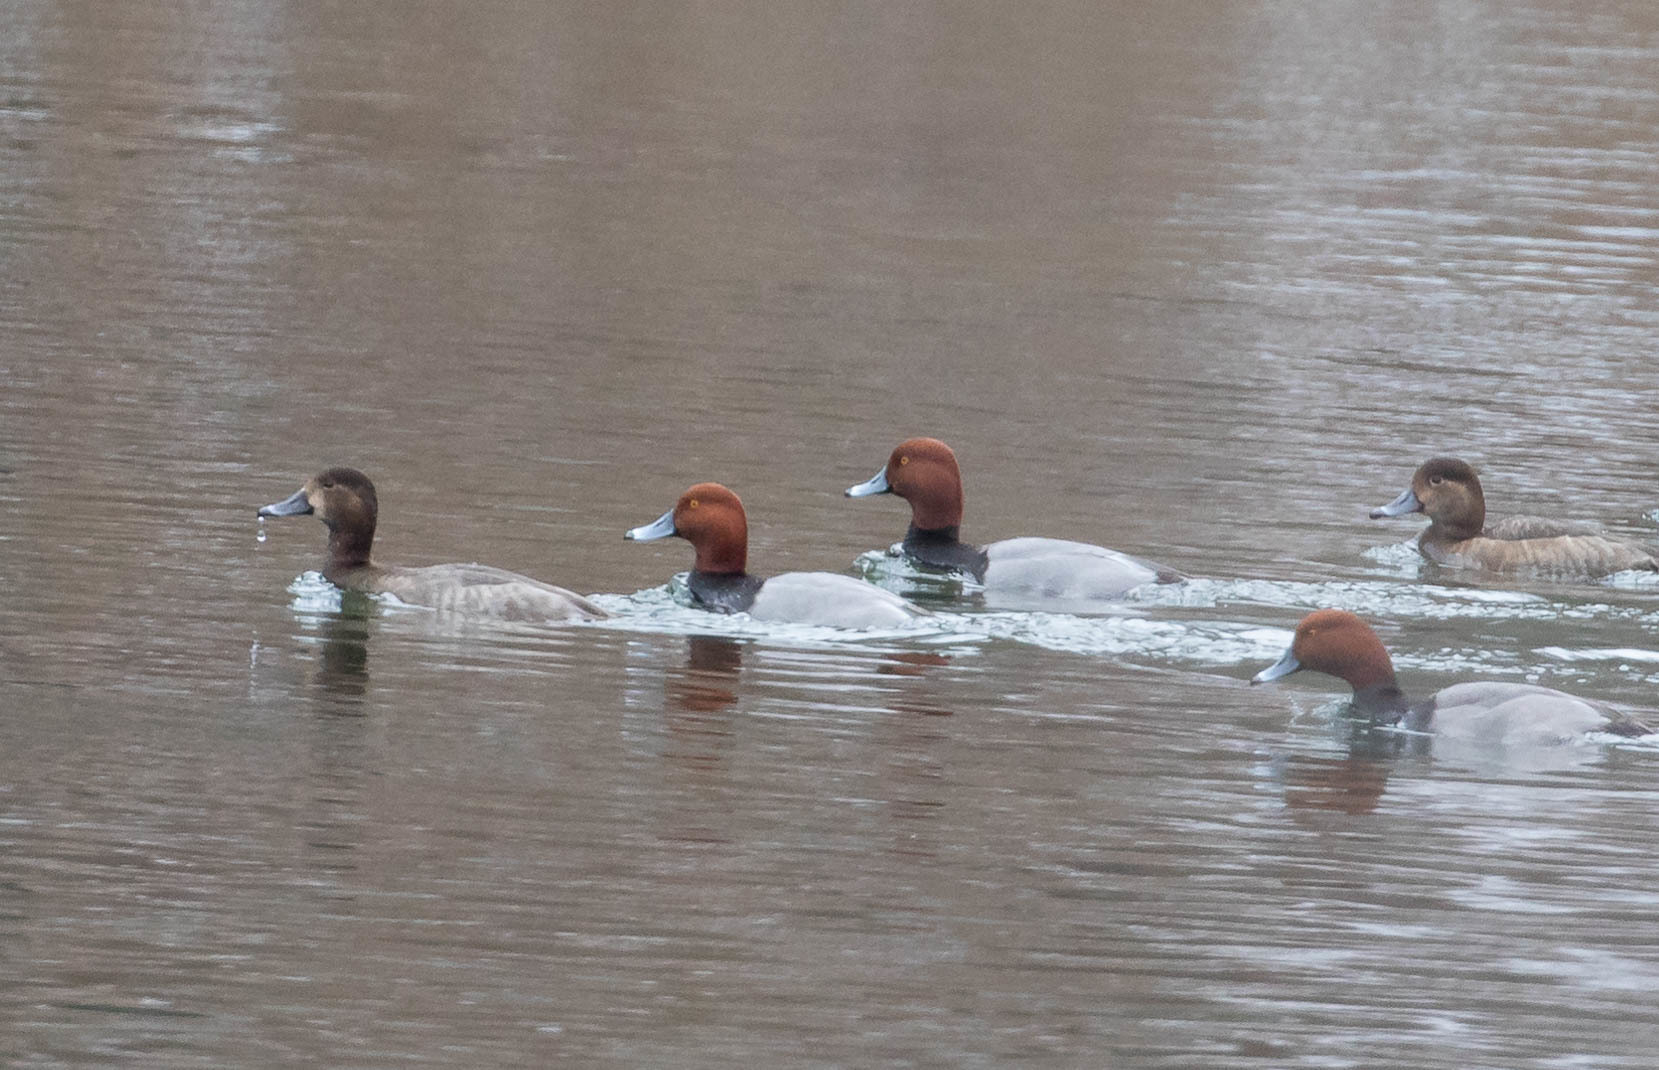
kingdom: Animalia
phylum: Chordata
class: Aves
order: Anseriformes
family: Anatidae
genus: Aythya
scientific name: Aythya americana
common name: Redhead
